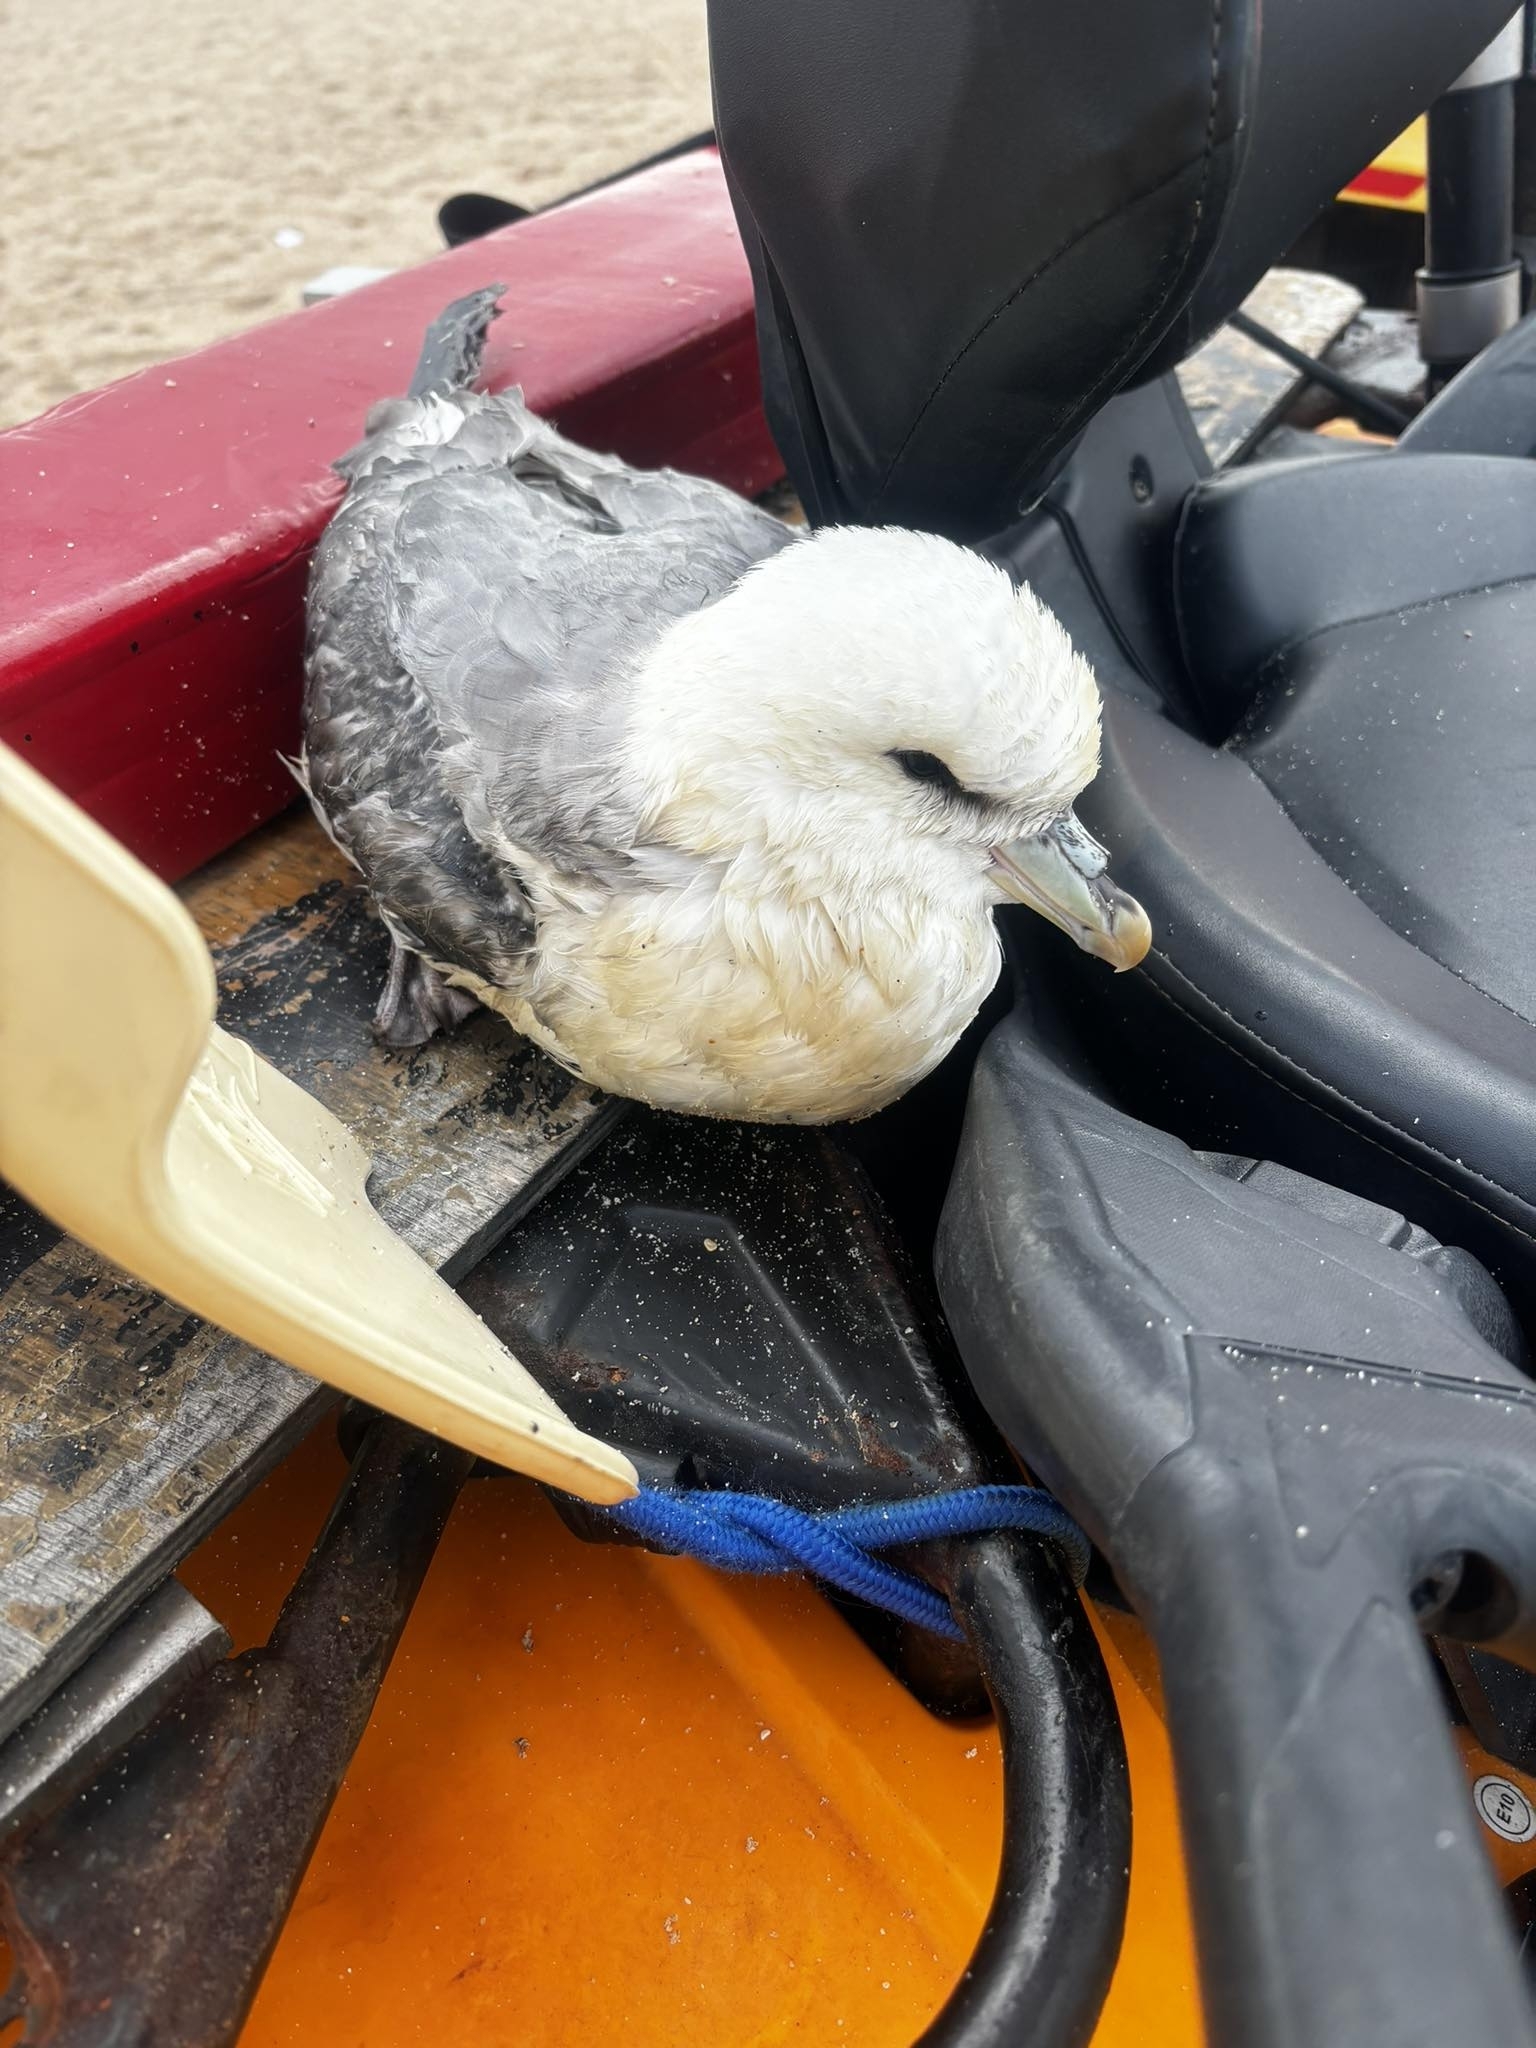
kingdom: Animalia
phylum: Chordata
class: Aves
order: Procellariiformes
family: Procellariidae
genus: Fulmarus
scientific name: Fulmarus glacialis
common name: Northern fulmar
